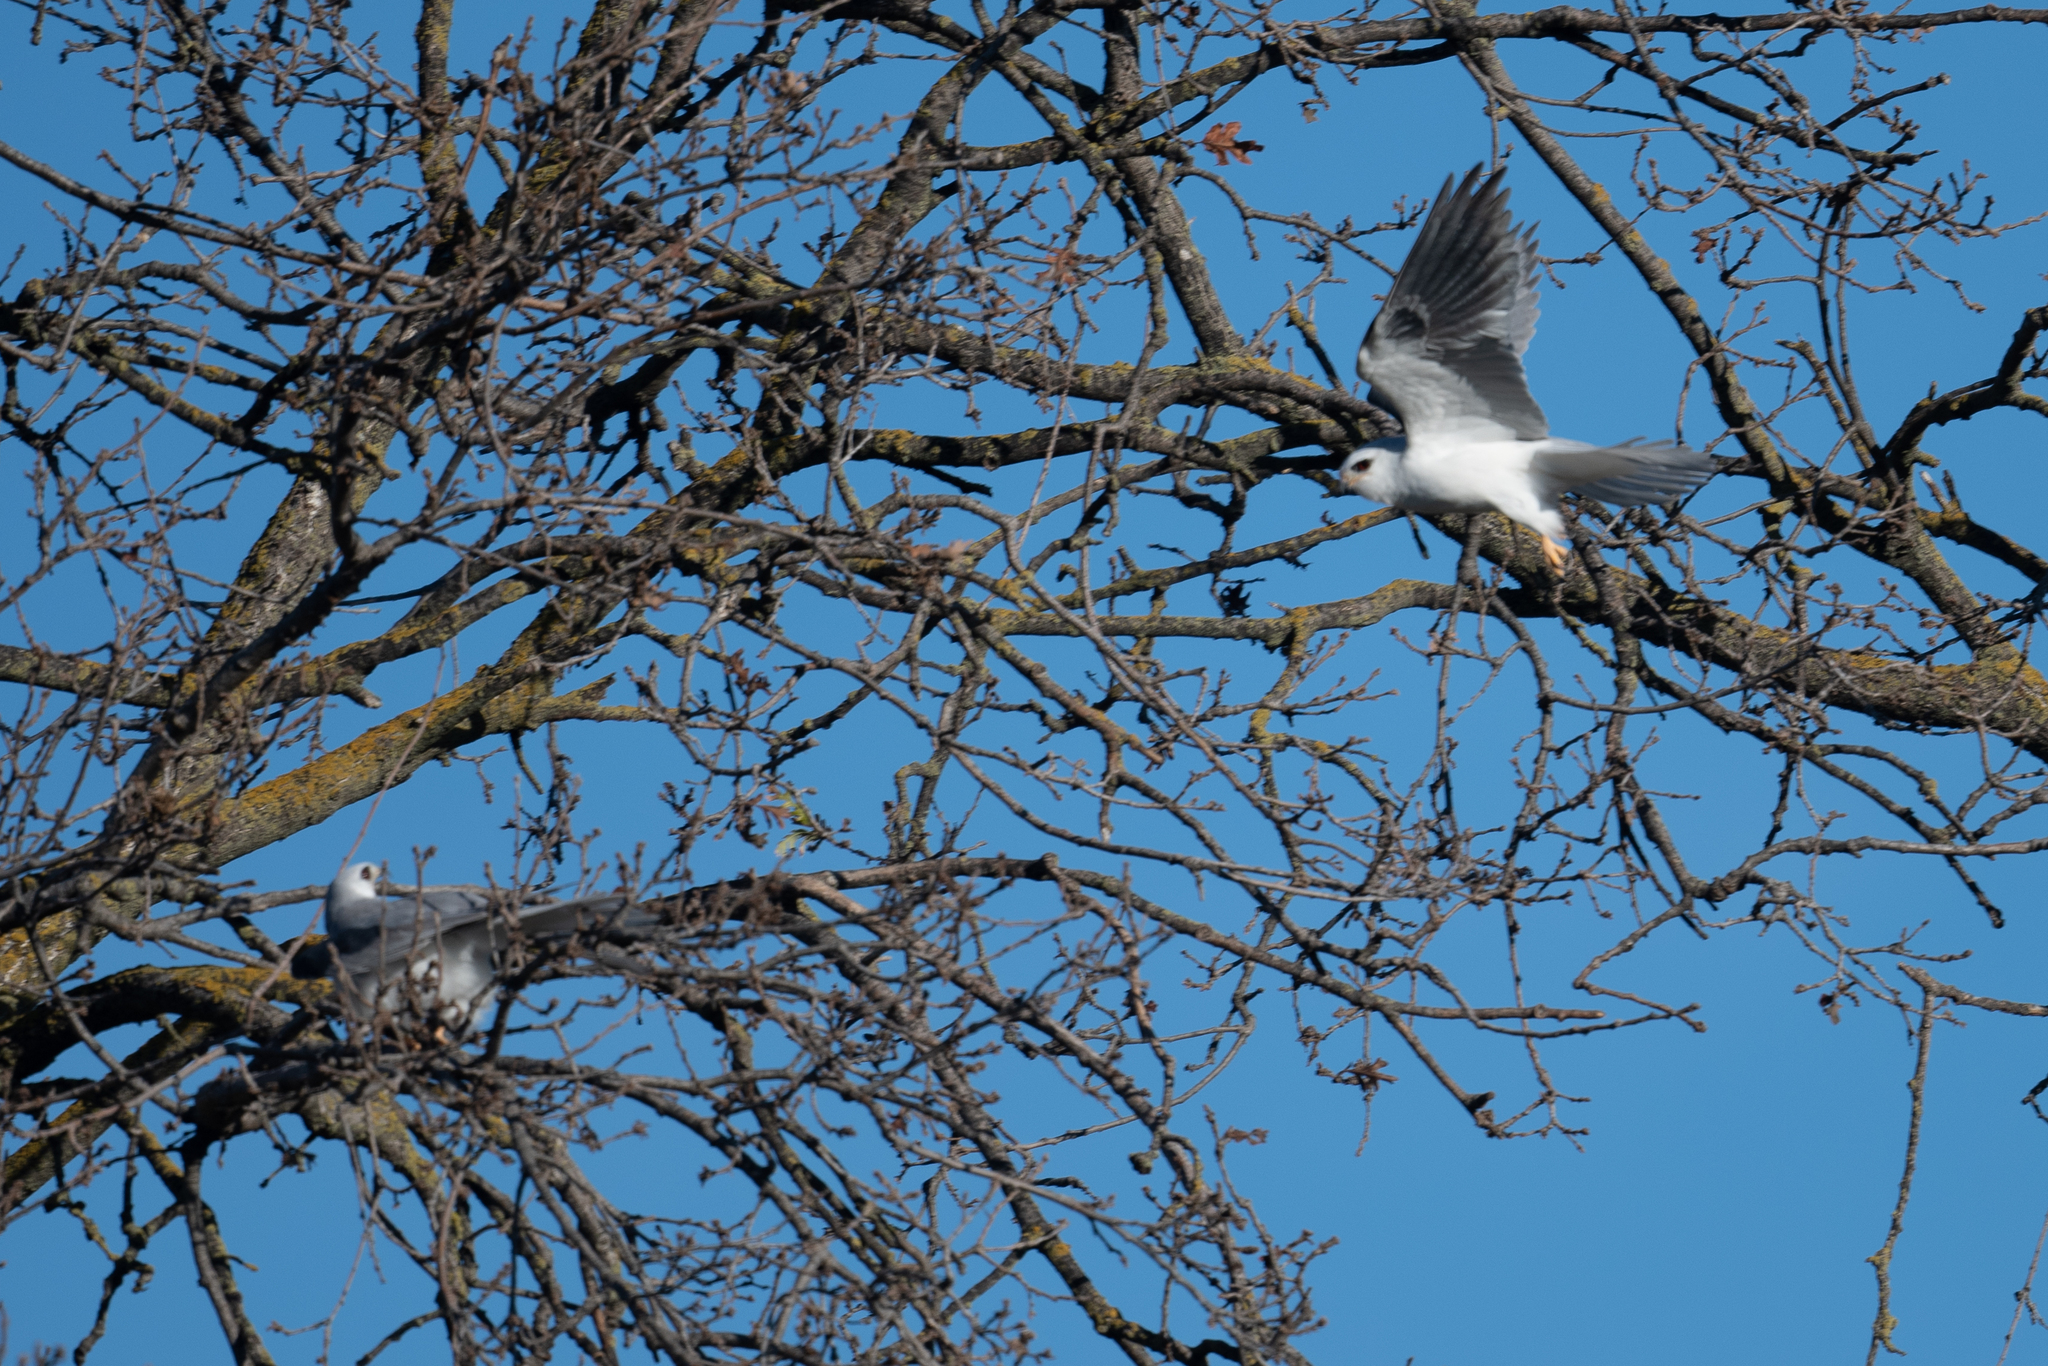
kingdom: Animalia
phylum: Chordata
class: Aves
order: Accipitriformes
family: Accipitridae
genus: Elanus
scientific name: Elanus leucurus
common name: White-tailed kite
